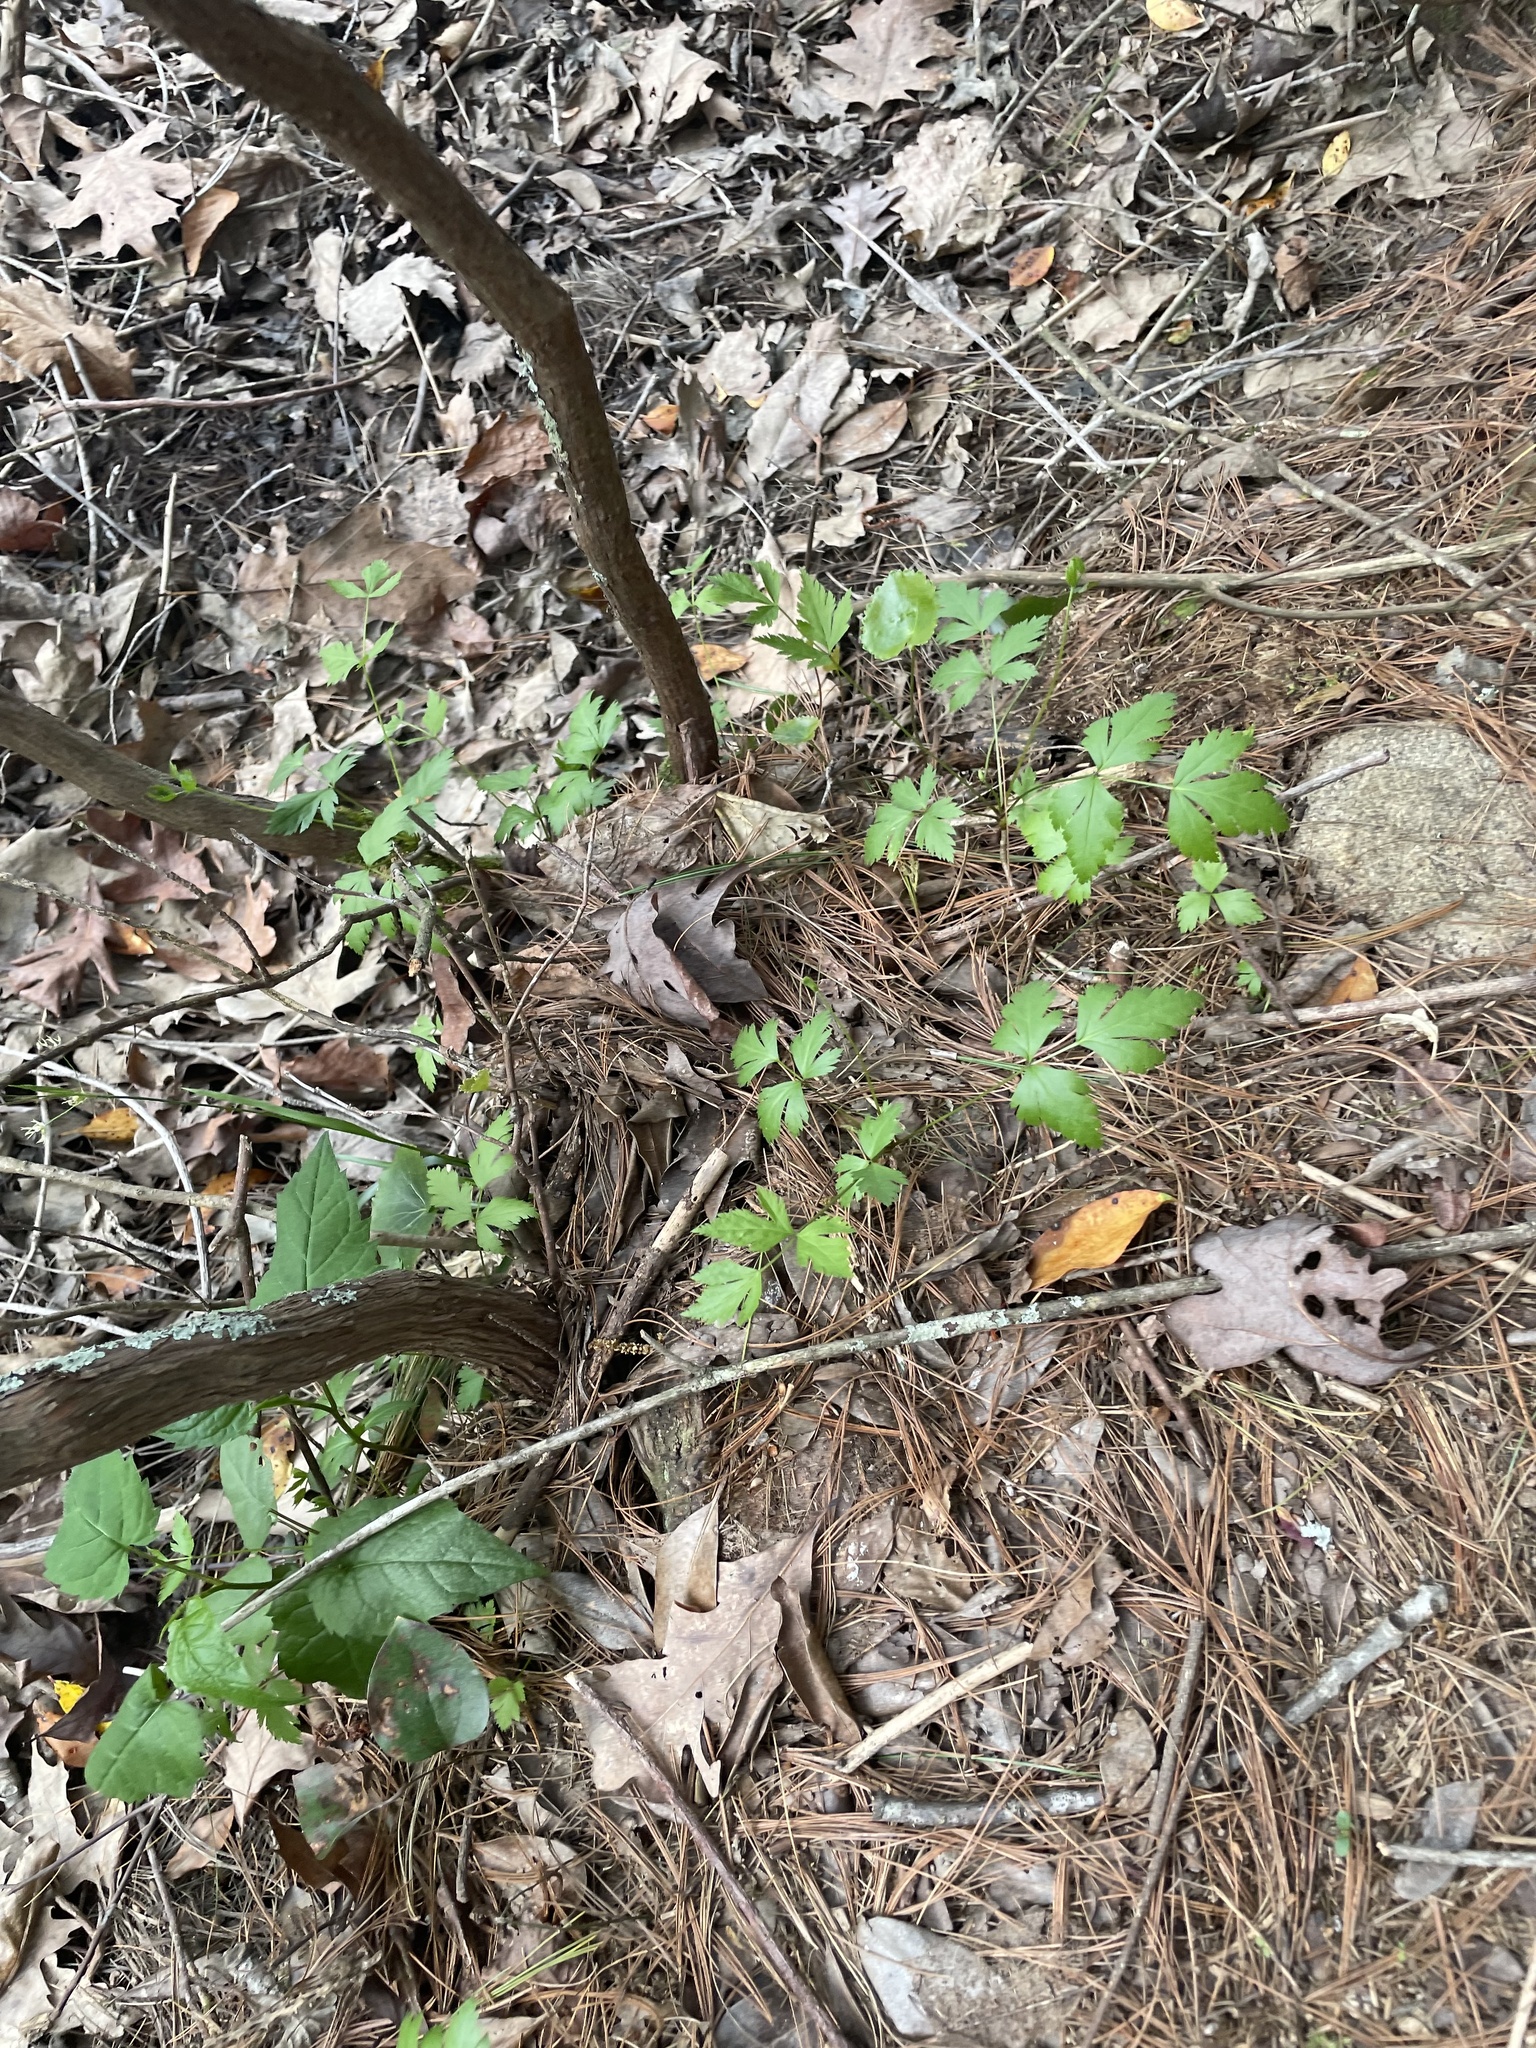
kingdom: Plantae
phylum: Tracheophyta
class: Magnoliopsida
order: Ranunculales
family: Ranunculaceae
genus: Xanthorhiza
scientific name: Xanthorhiza simplicissima
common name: Yellowroot
